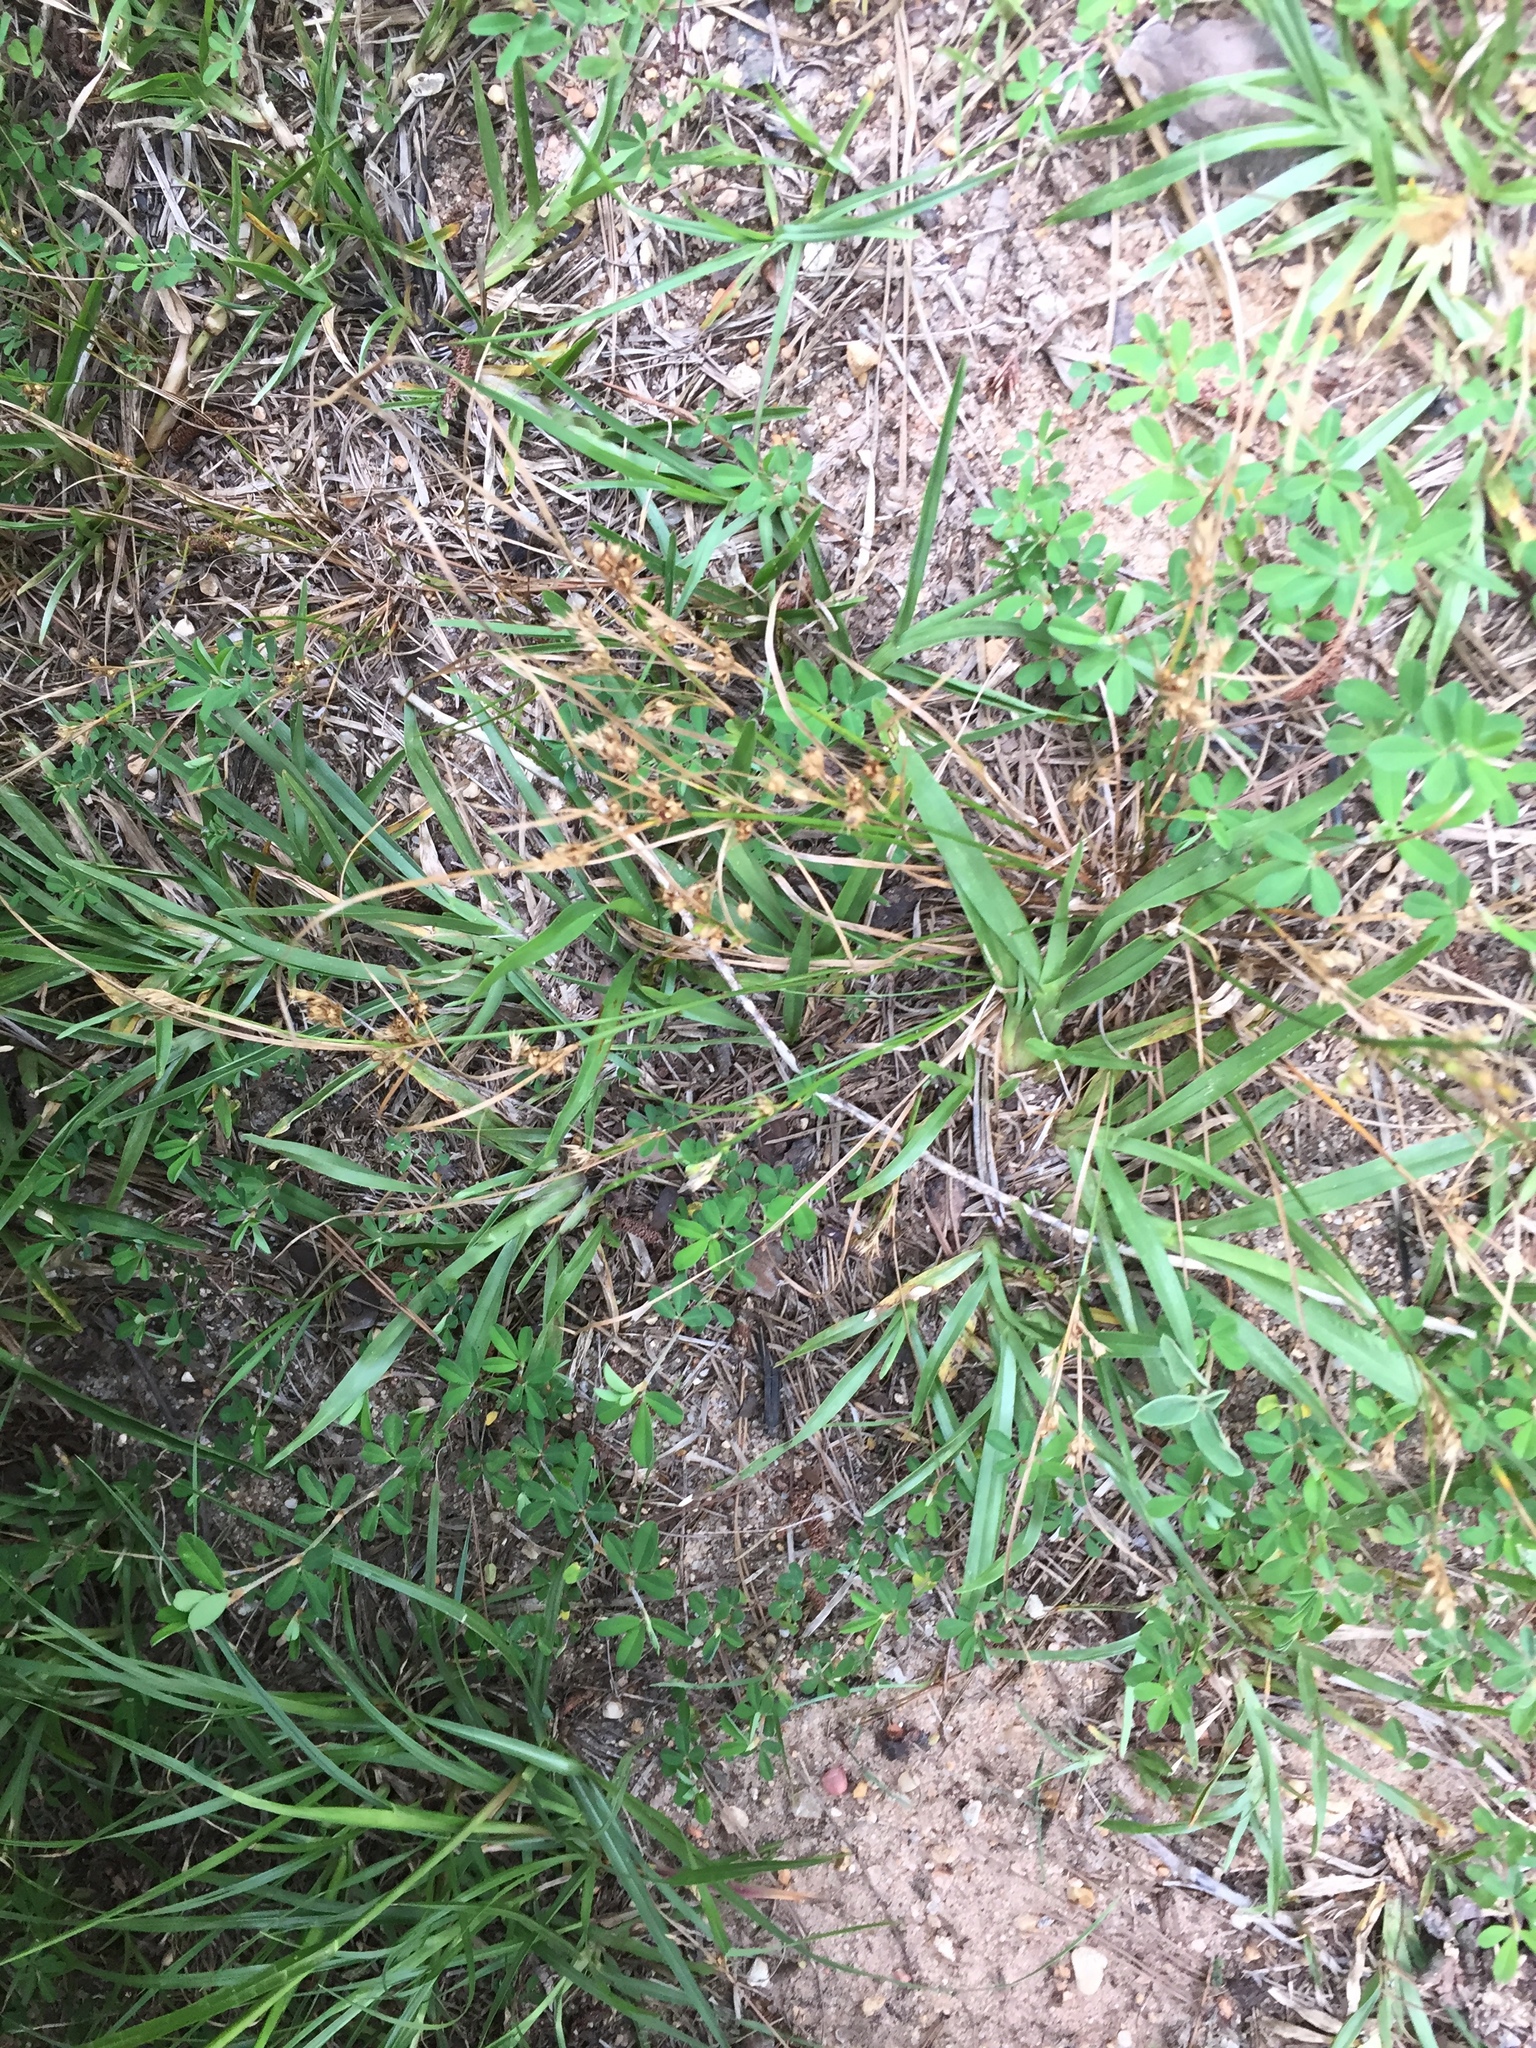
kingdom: Plantae
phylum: Tracheophyta
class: Liliopsida
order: Poales
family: Juncaceae
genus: Juncus
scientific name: Juncus tenuis
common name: Slender rush
